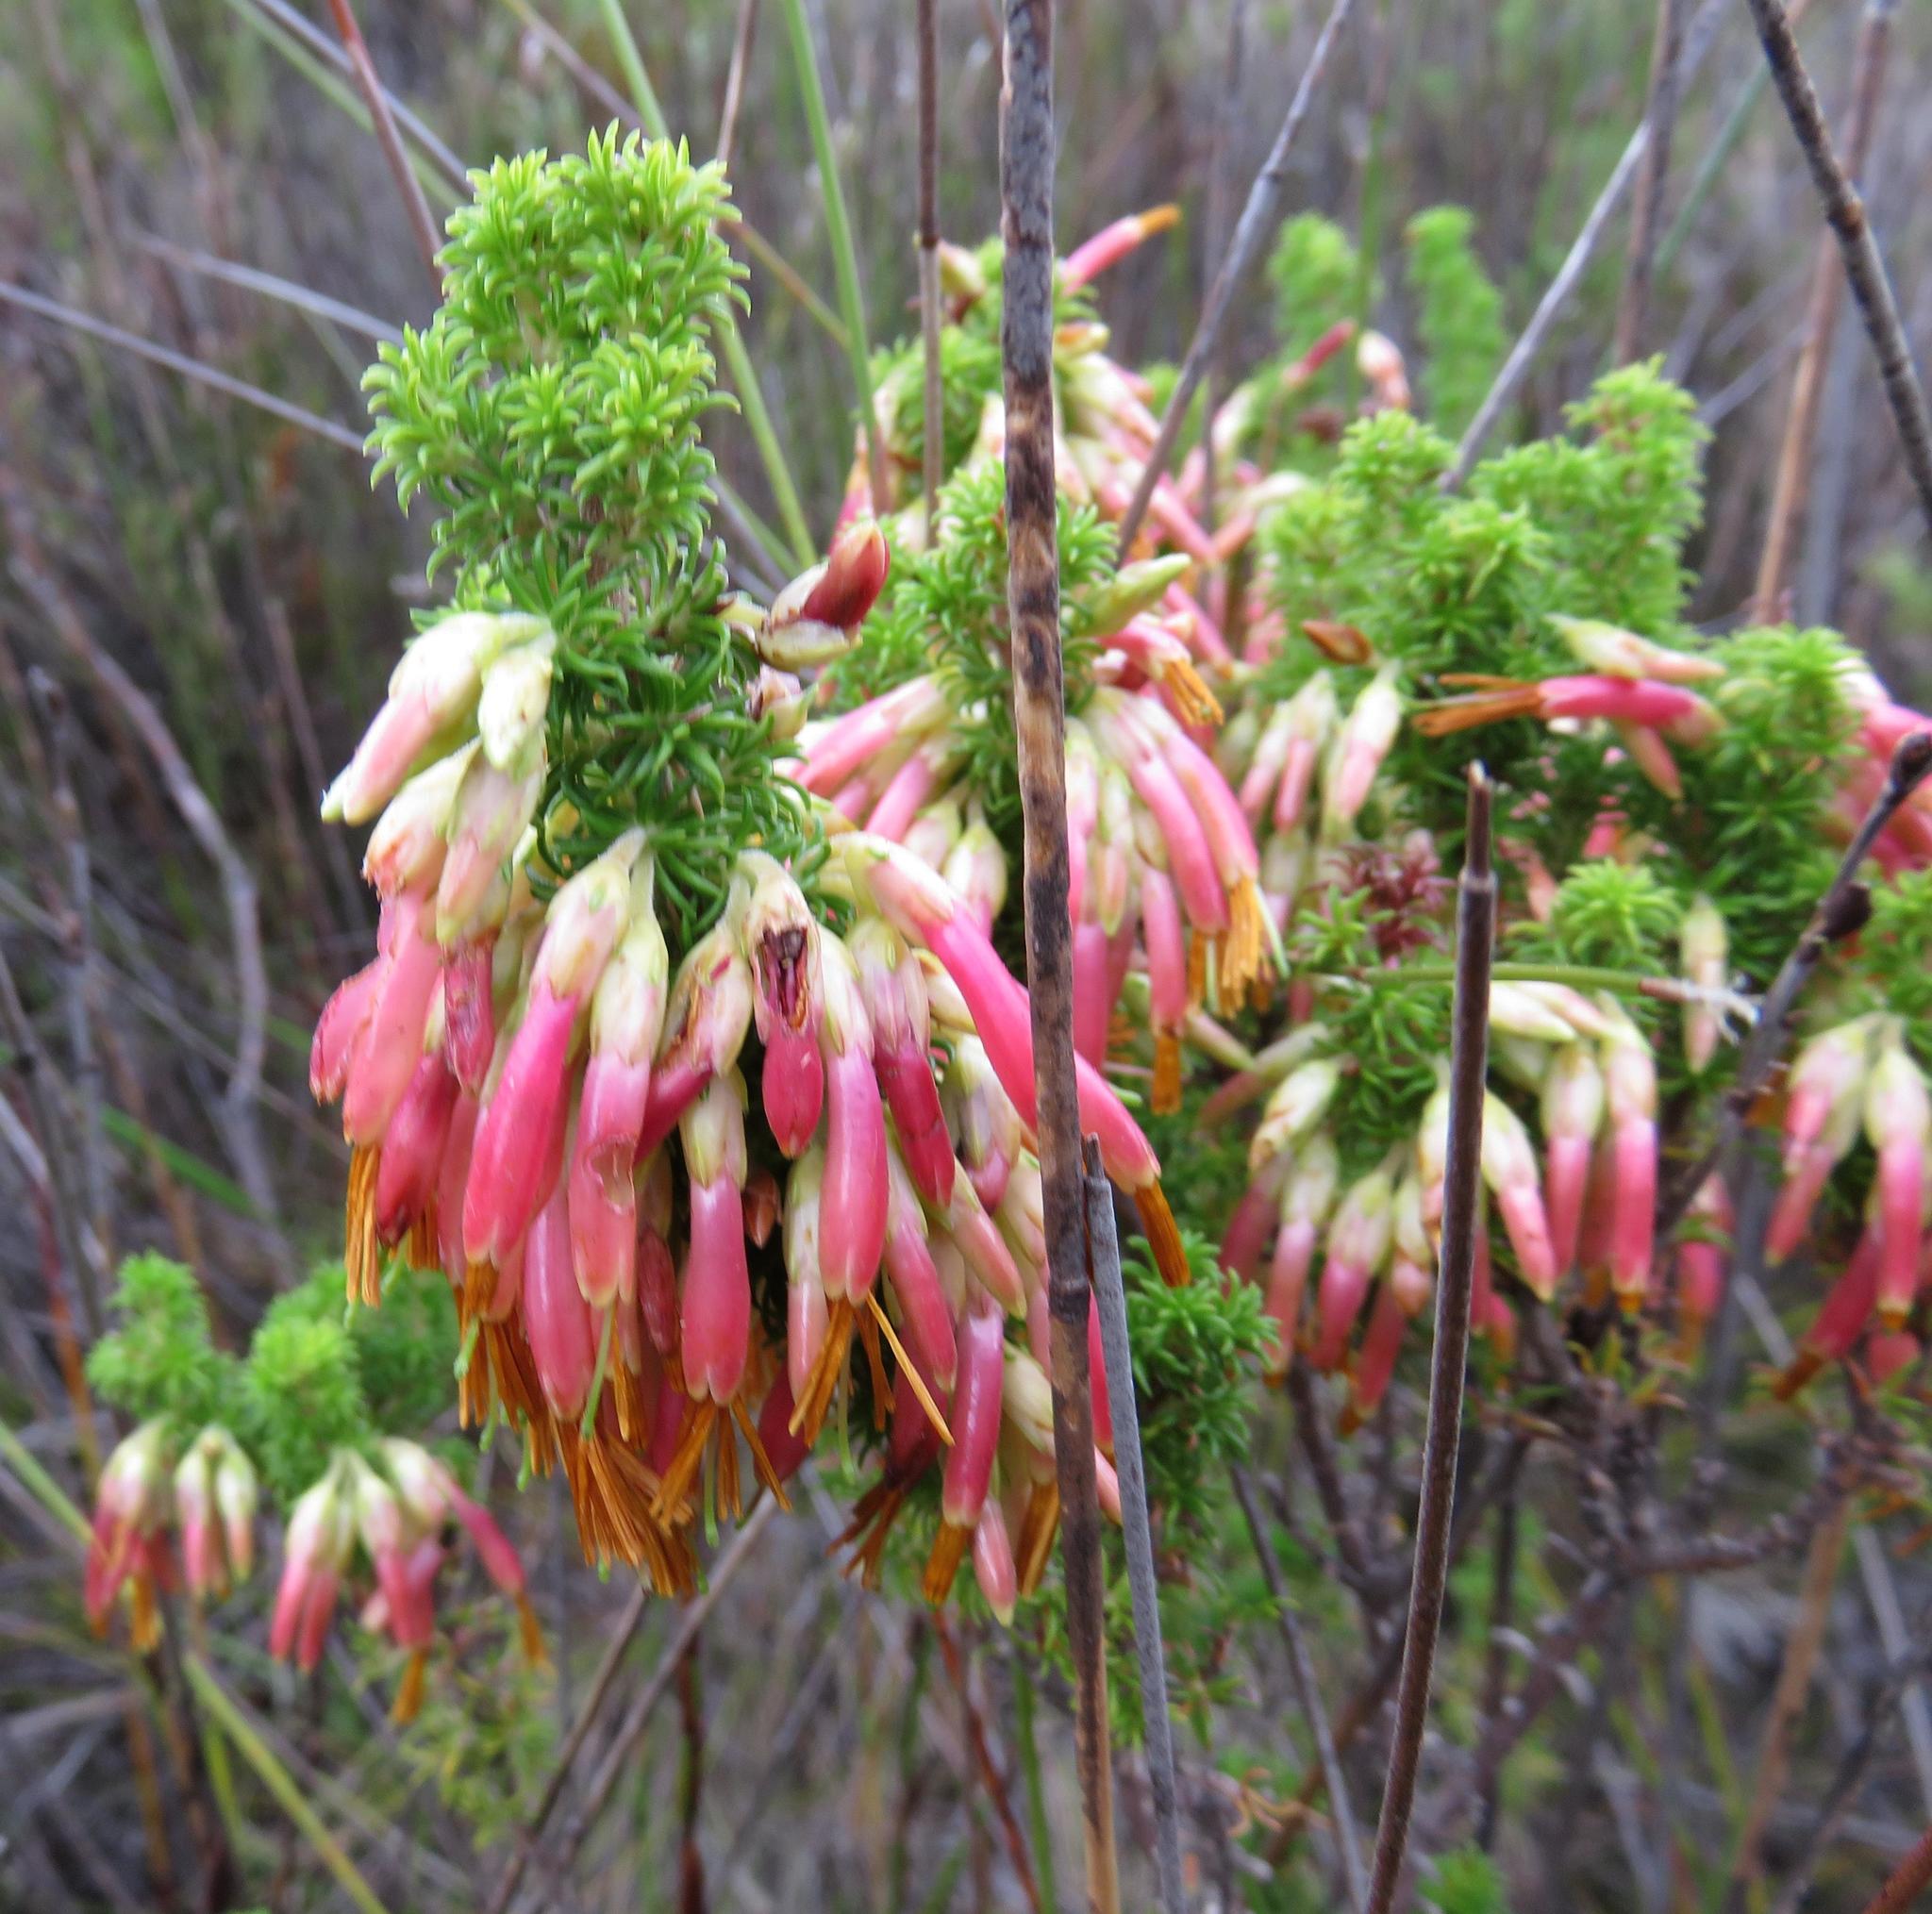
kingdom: Plantae
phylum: Tracheophyta
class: Magnoliopsida
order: Ericales
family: Ericaceae
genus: Erica
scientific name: Erica coccinea
